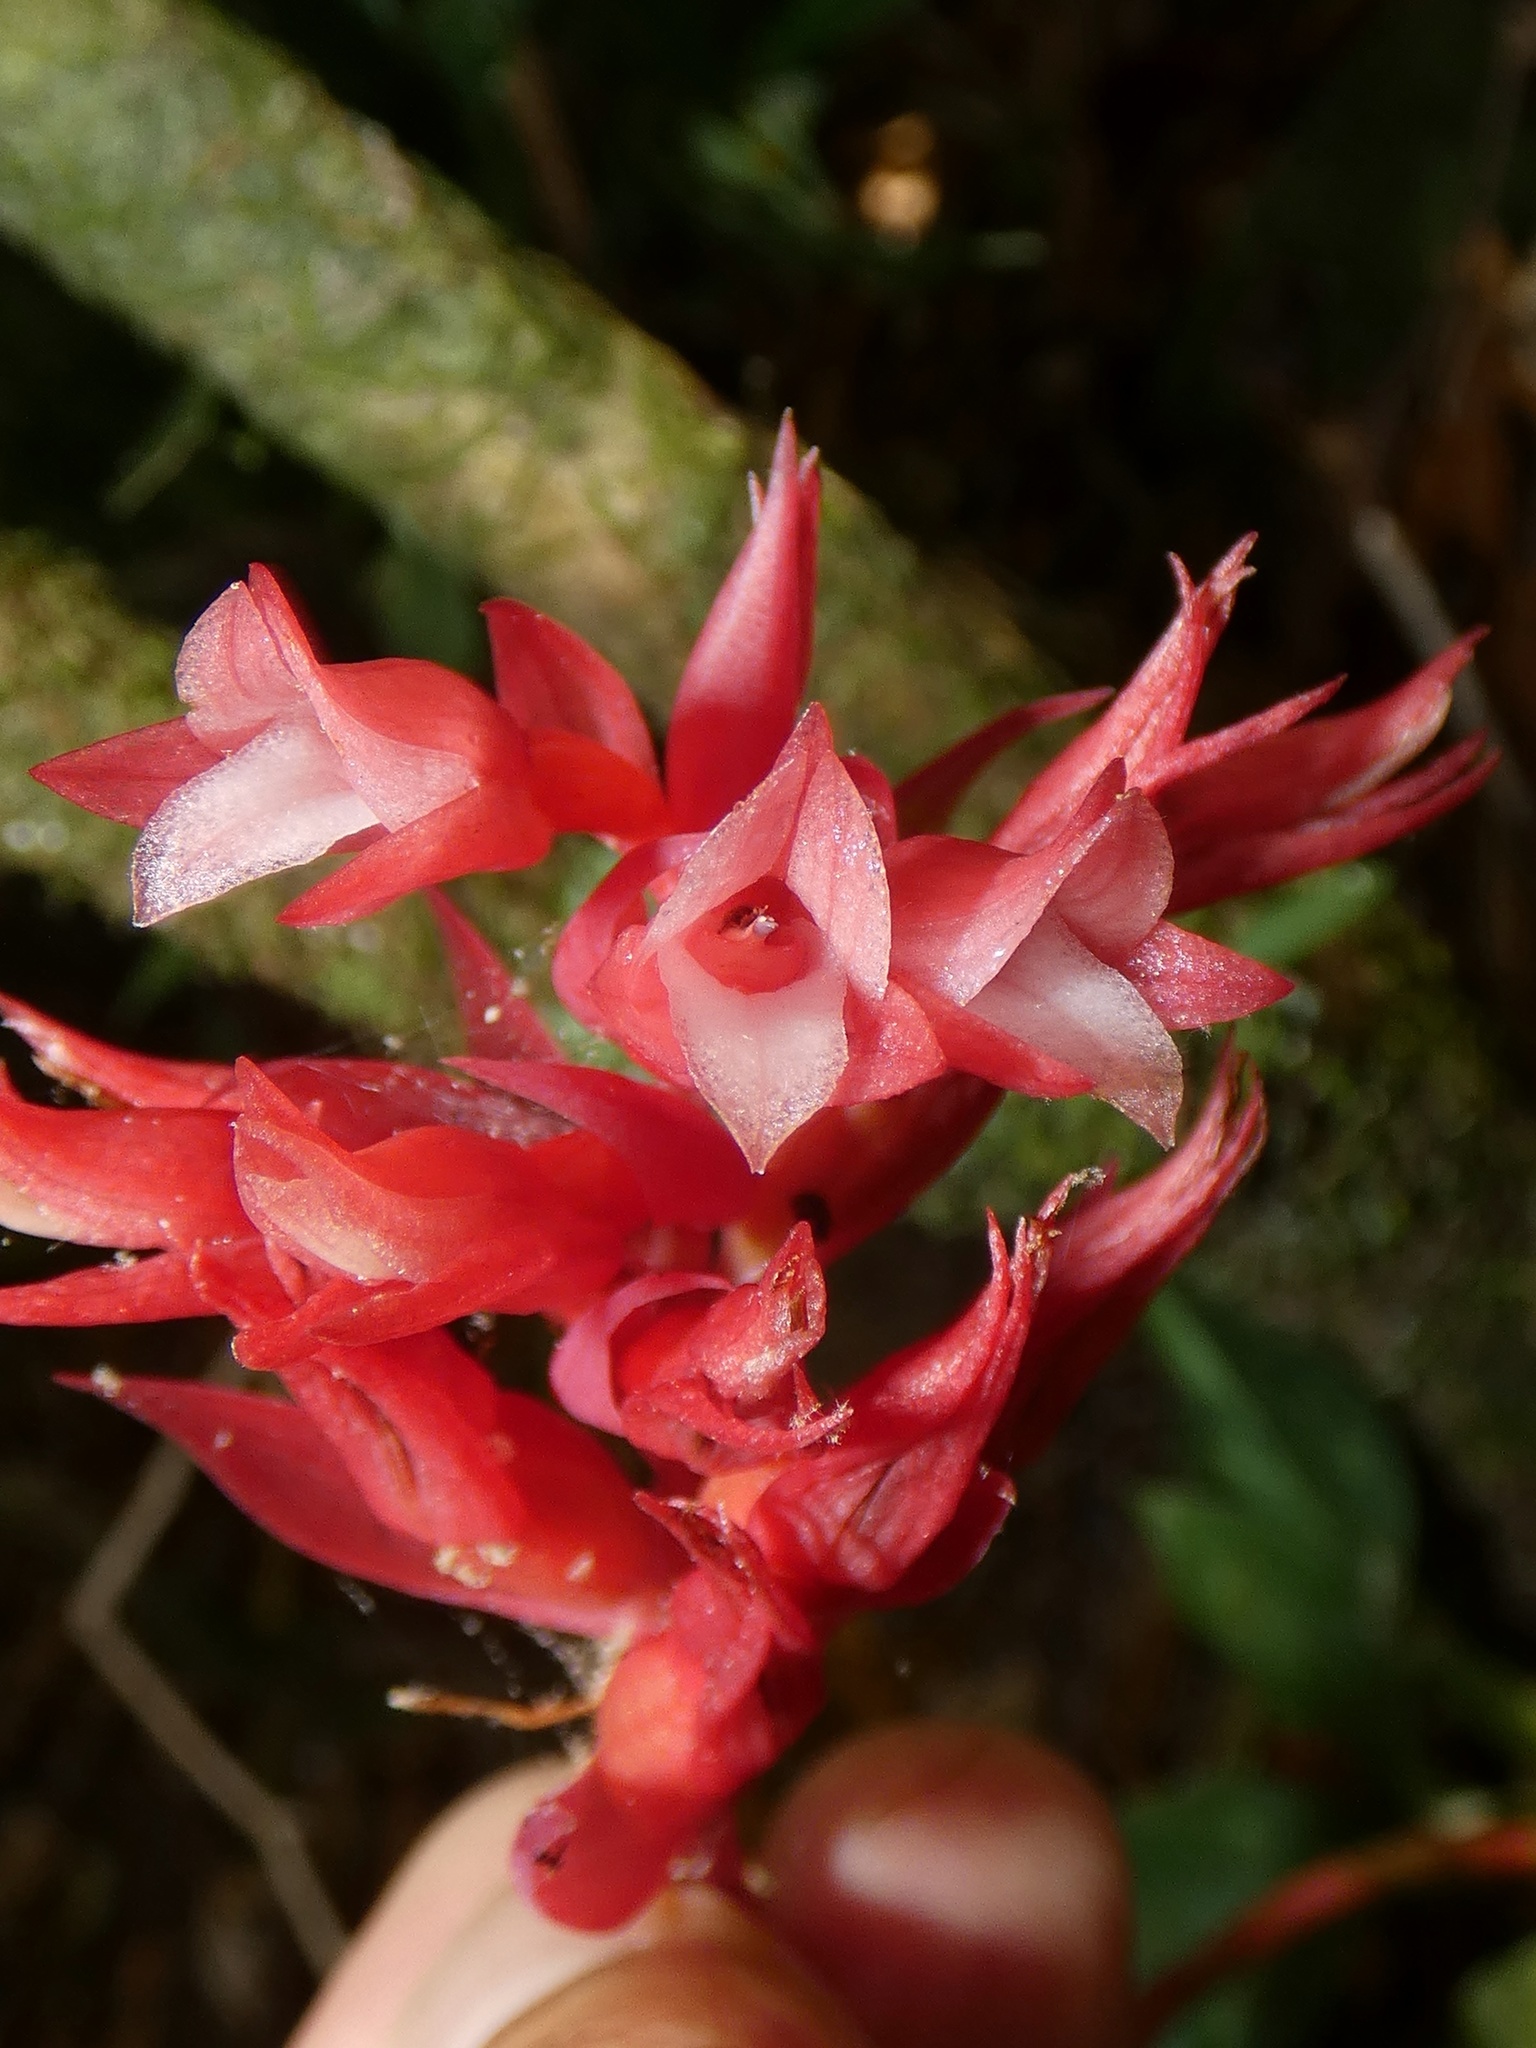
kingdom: Plantae
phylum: Tracheophyta
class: Liliopsida
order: Asparagales
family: Orchidaceae
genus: Stenorrhynchos
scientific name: Stenorrhynchos albidomaculatum
